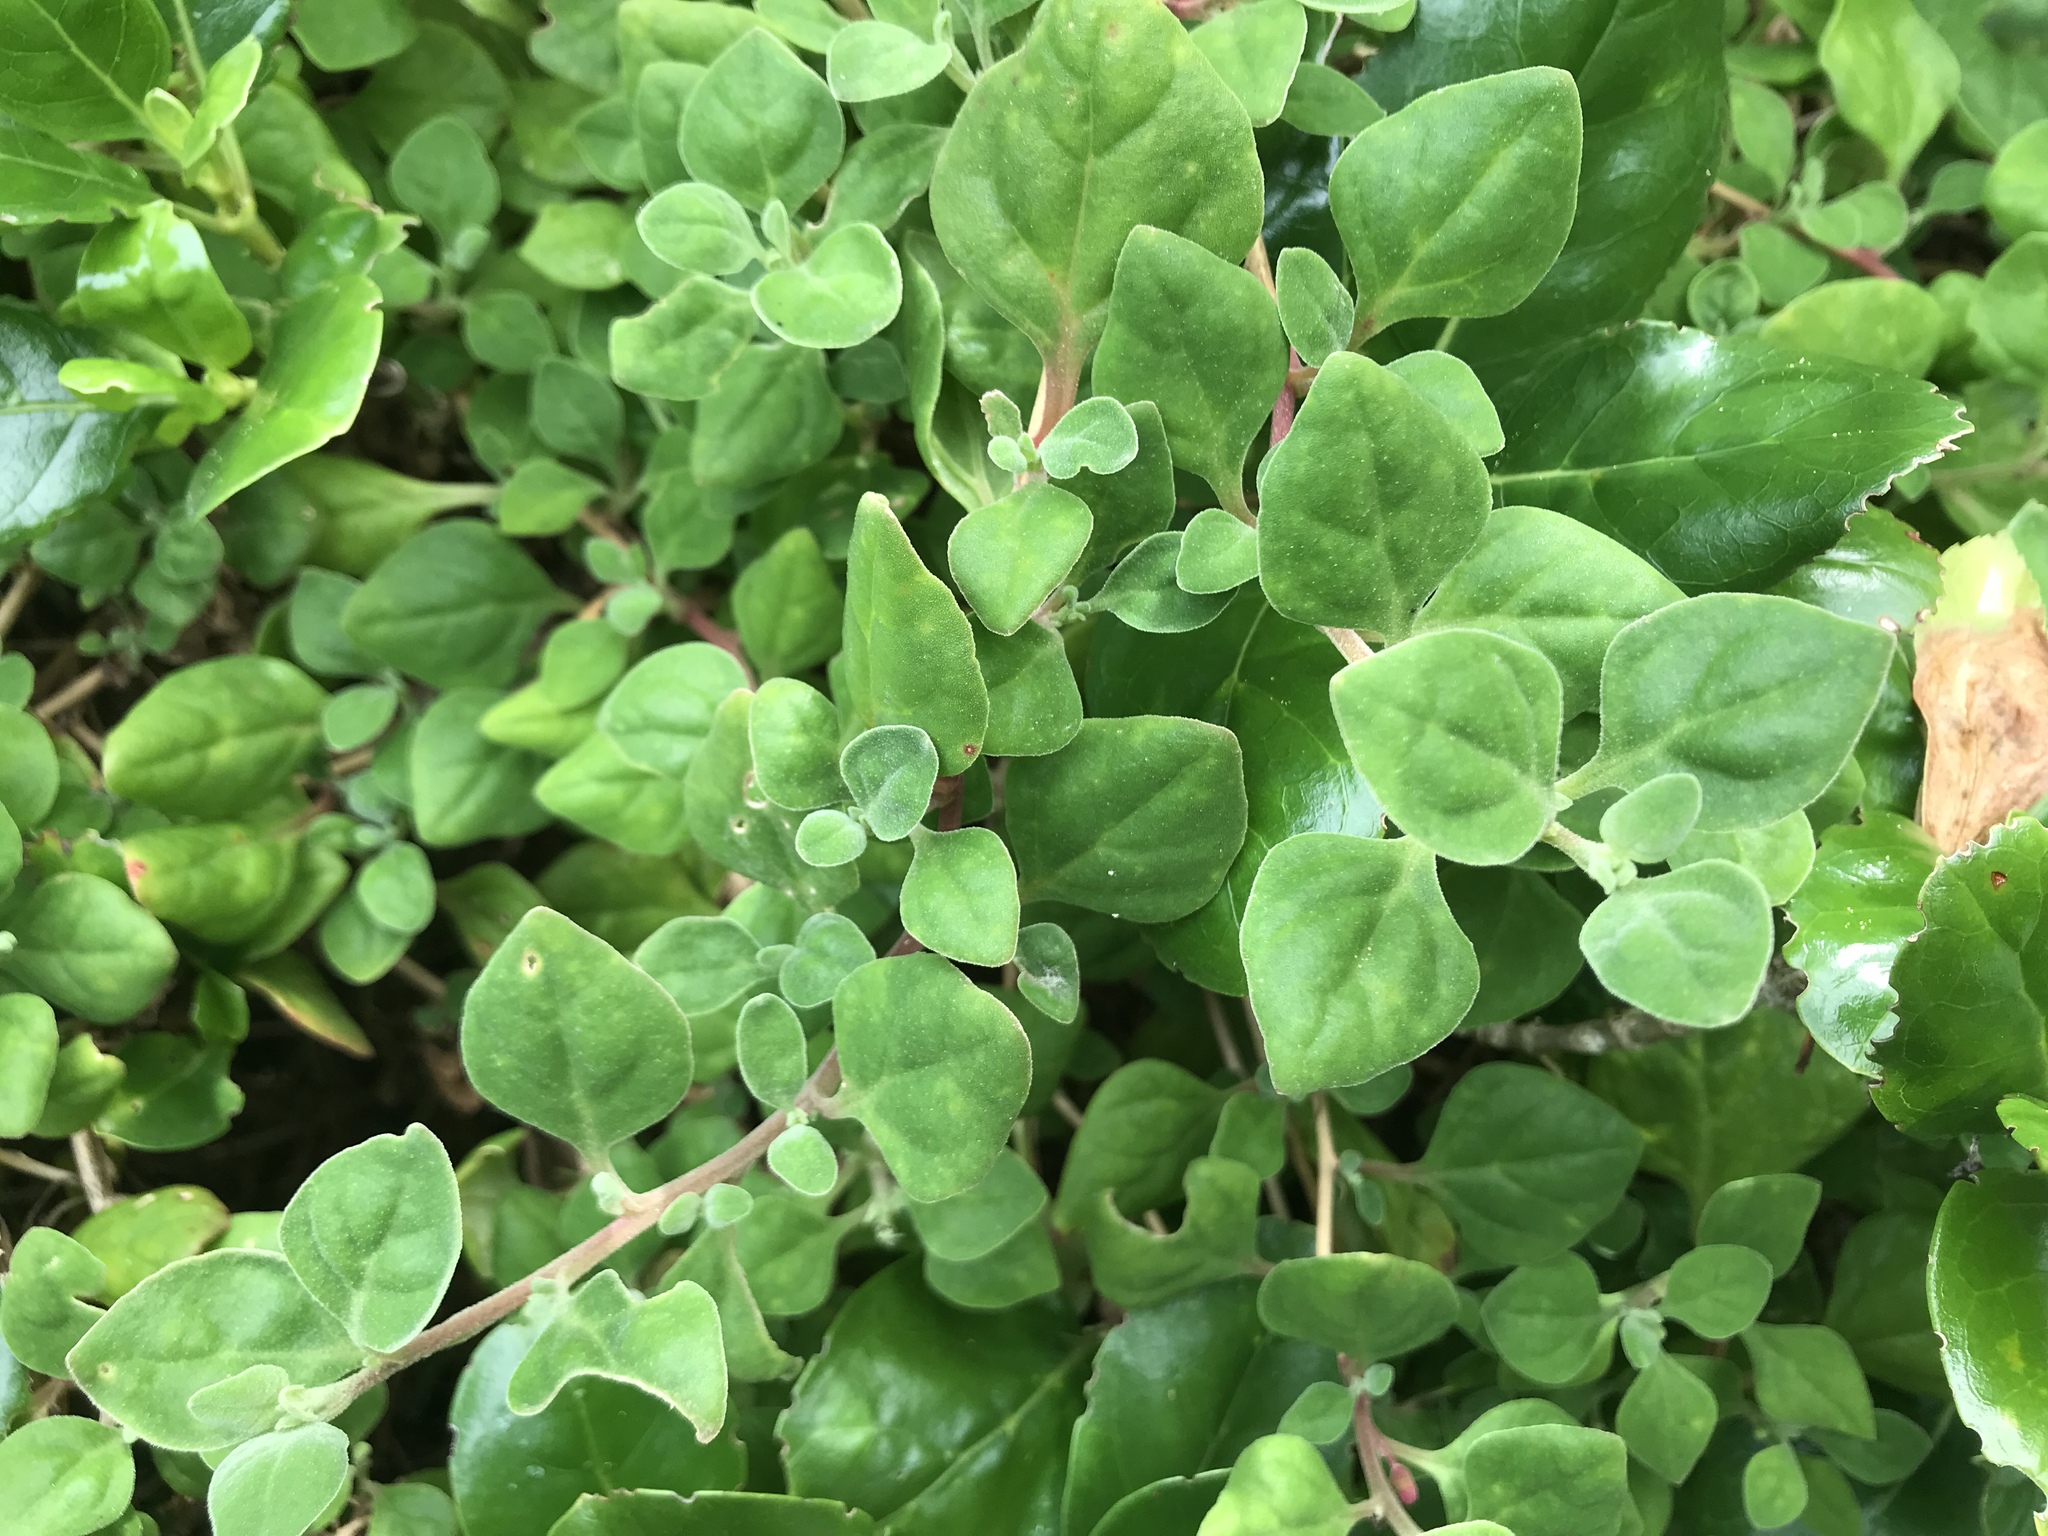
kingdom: Plantae
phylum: Tracheophyta
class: Magnoliopsida
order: Caryophyllales
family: Aizoaceae
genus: Tetragonia
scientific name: Tetragonia implexicoma
